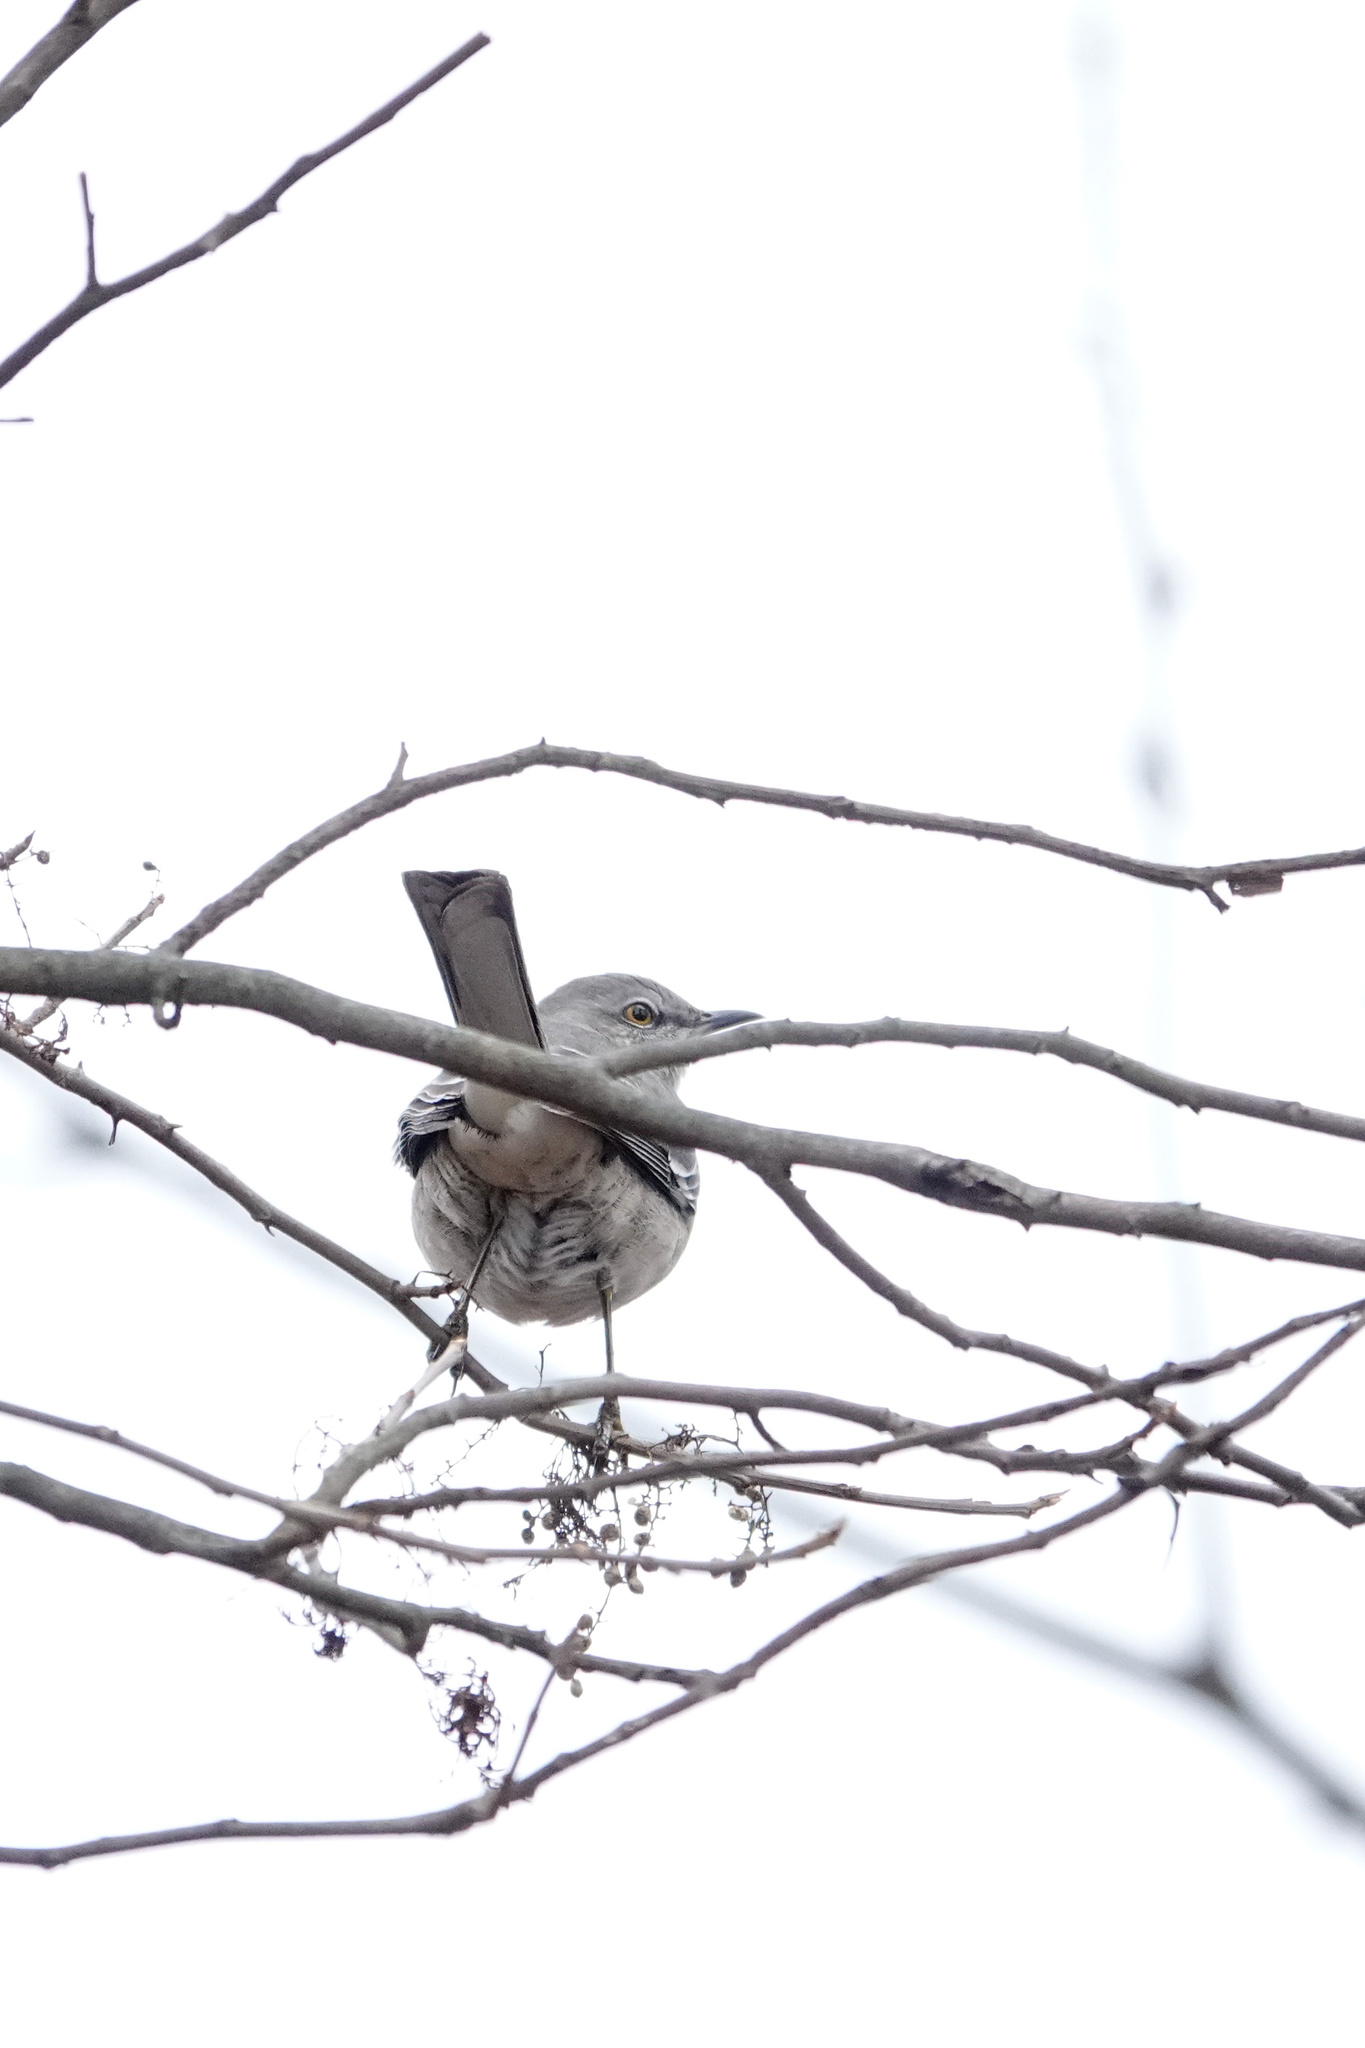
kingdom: Animalia
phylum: Chordata
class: Aves
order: Passeriformes
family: Mimidae
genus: Mimus
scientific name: Mimus polyglottos
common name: Northern mockingbird
